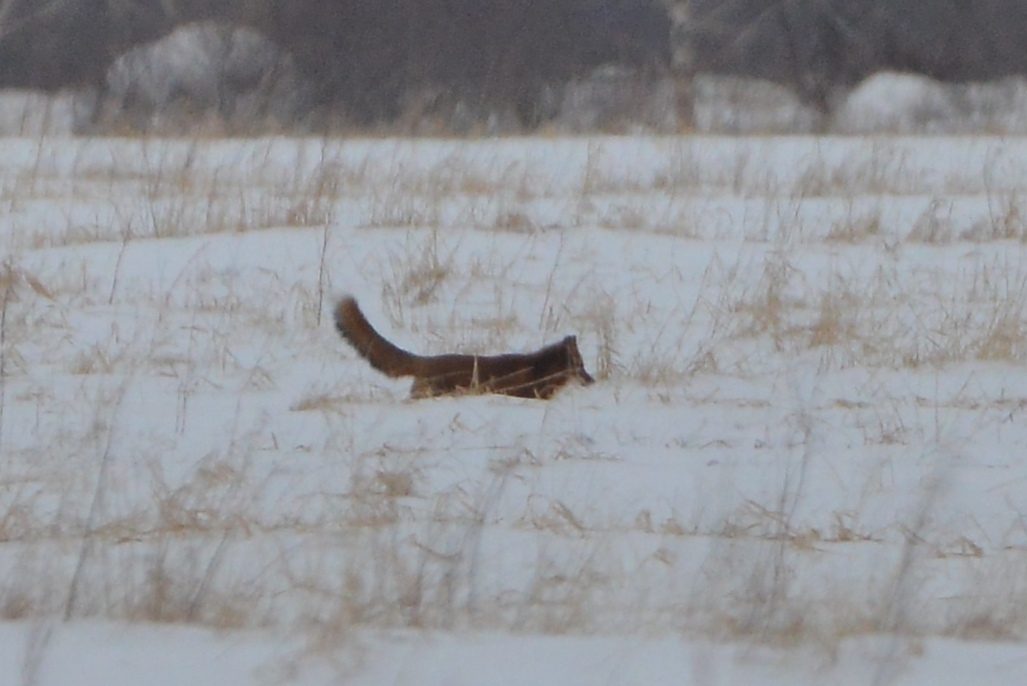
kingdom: Animalia
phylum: Chordata
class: Mammalia
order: Carnivora
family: Canidae
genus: Vulpes
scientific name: Vulpes vulpes
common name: Red fox
